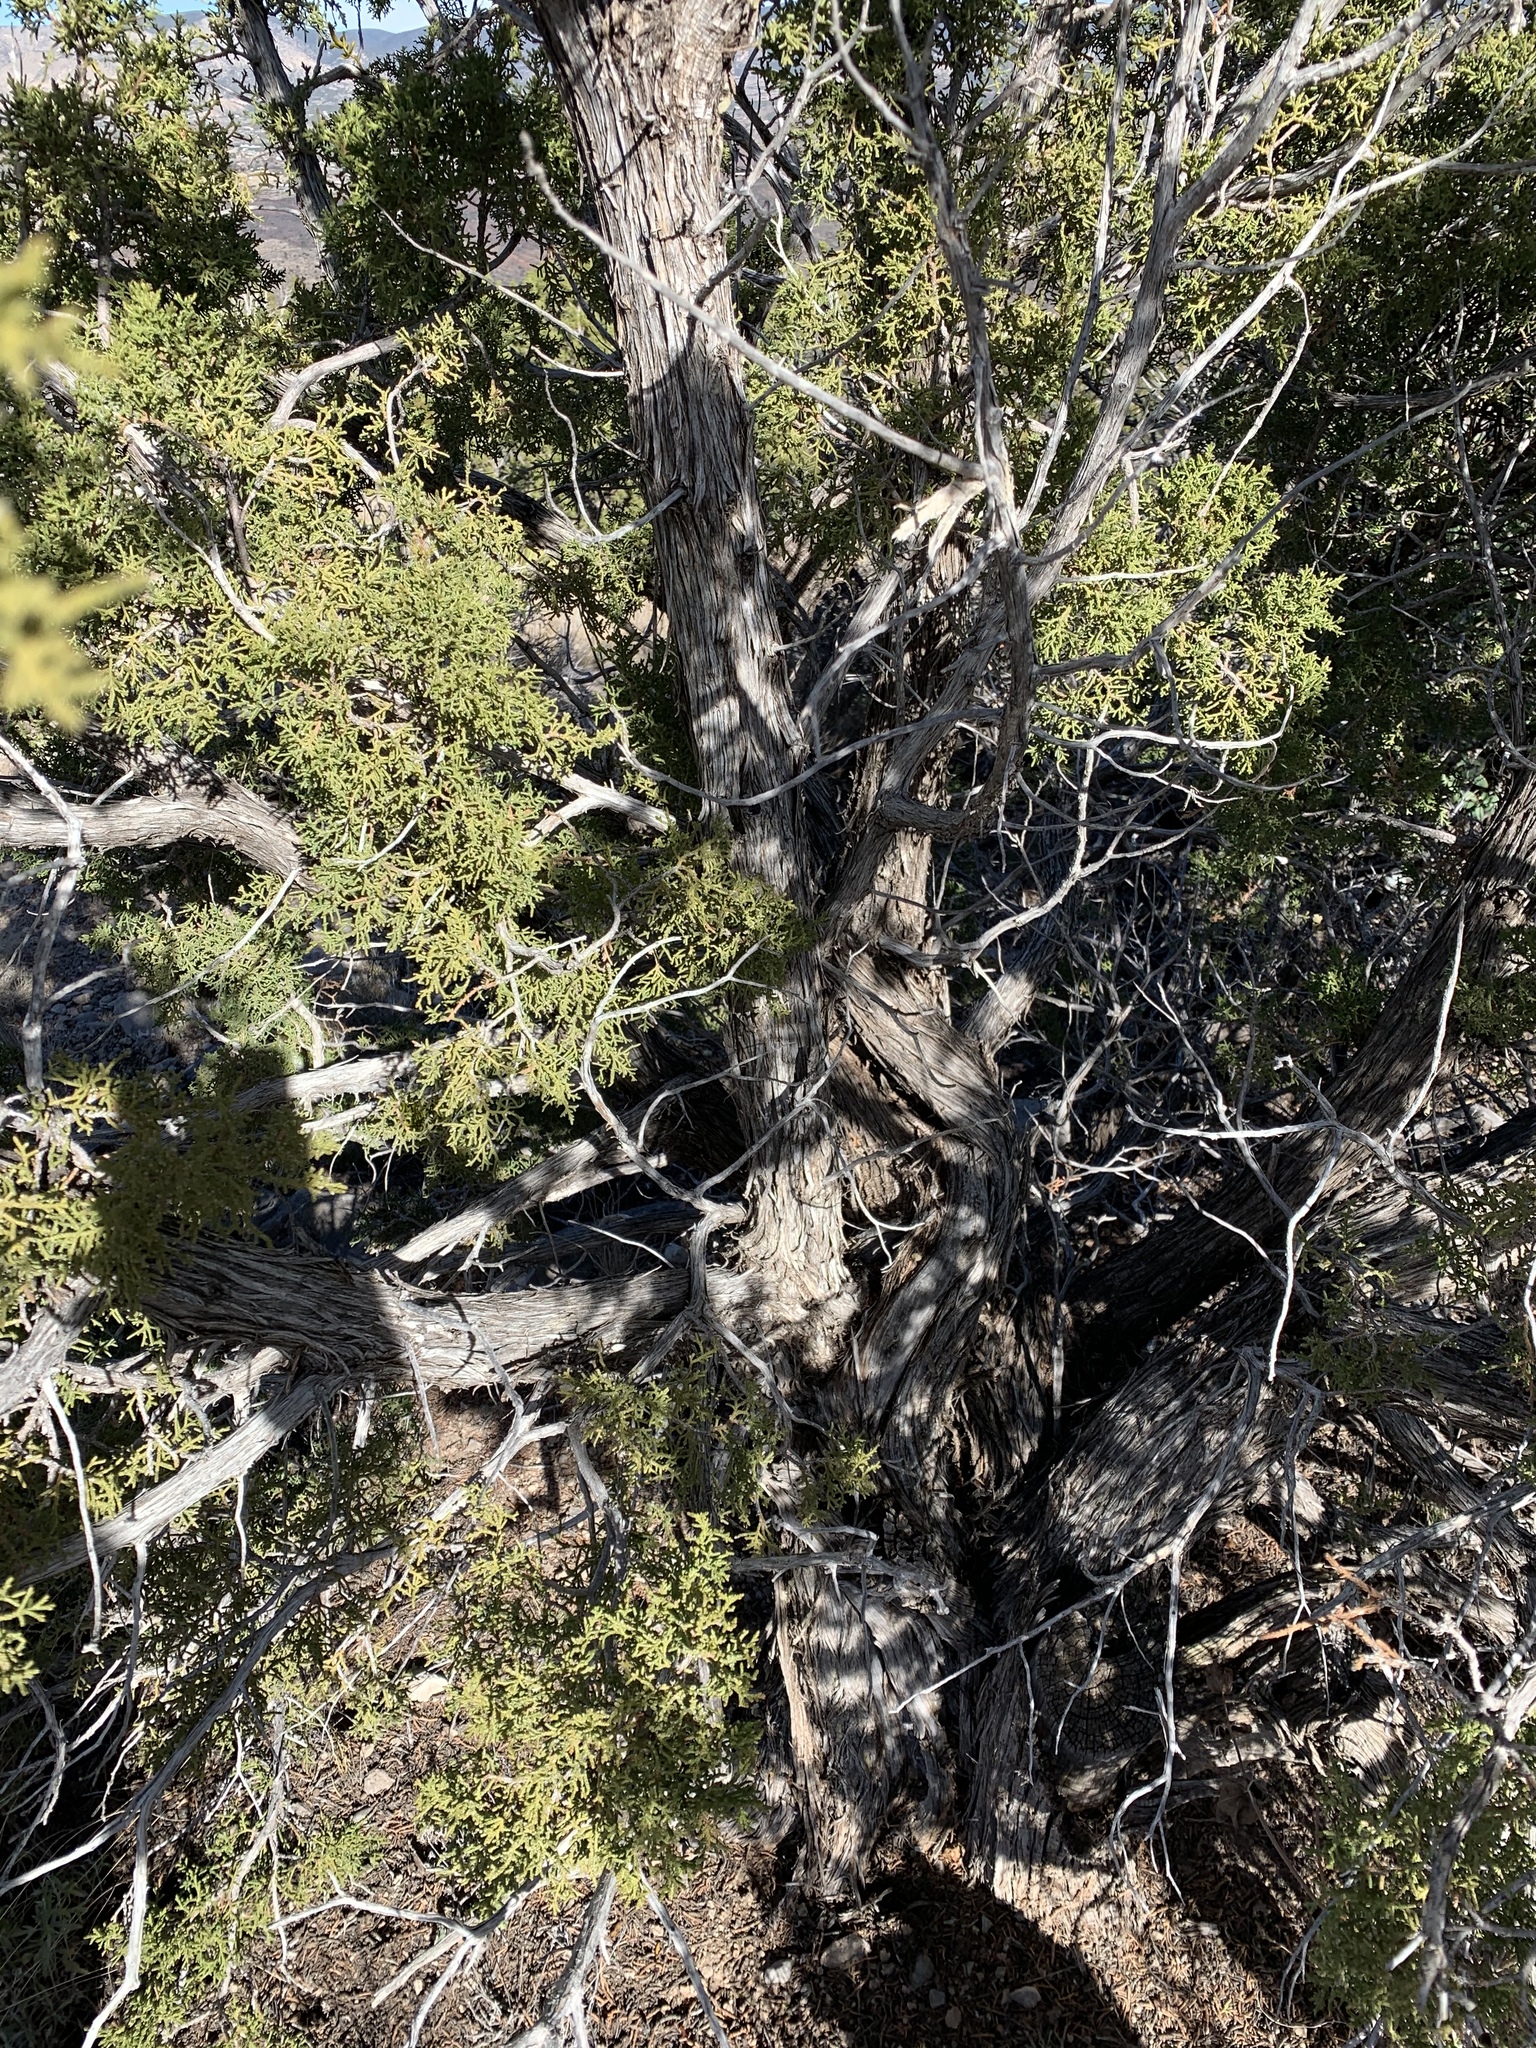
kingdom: Plantae
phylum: Tracheophyta
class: Pinopsida
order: Pinales
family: Cupressaceae
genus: Juniperus
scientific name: Juniperus monosperma
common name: One-seed juniper
